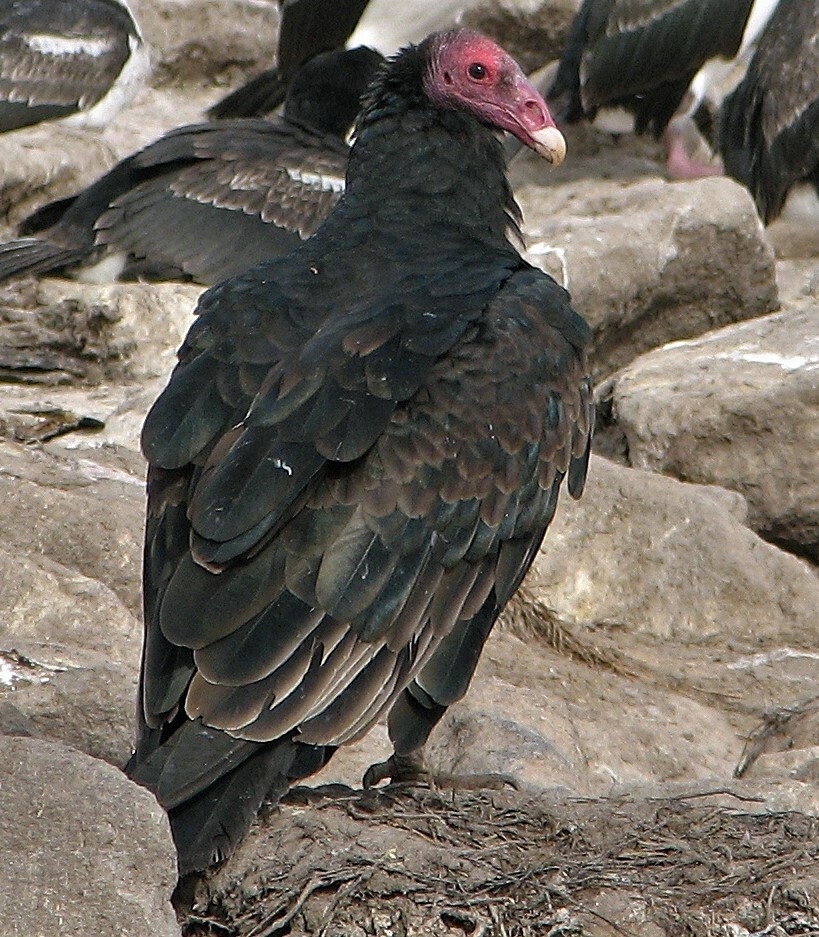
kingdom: Animalia
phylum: Chordata
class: Aves
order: Accipitriformes
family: Cathartidae
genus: Cathartes
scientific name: Cathartes aura
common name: Turkey vulture
